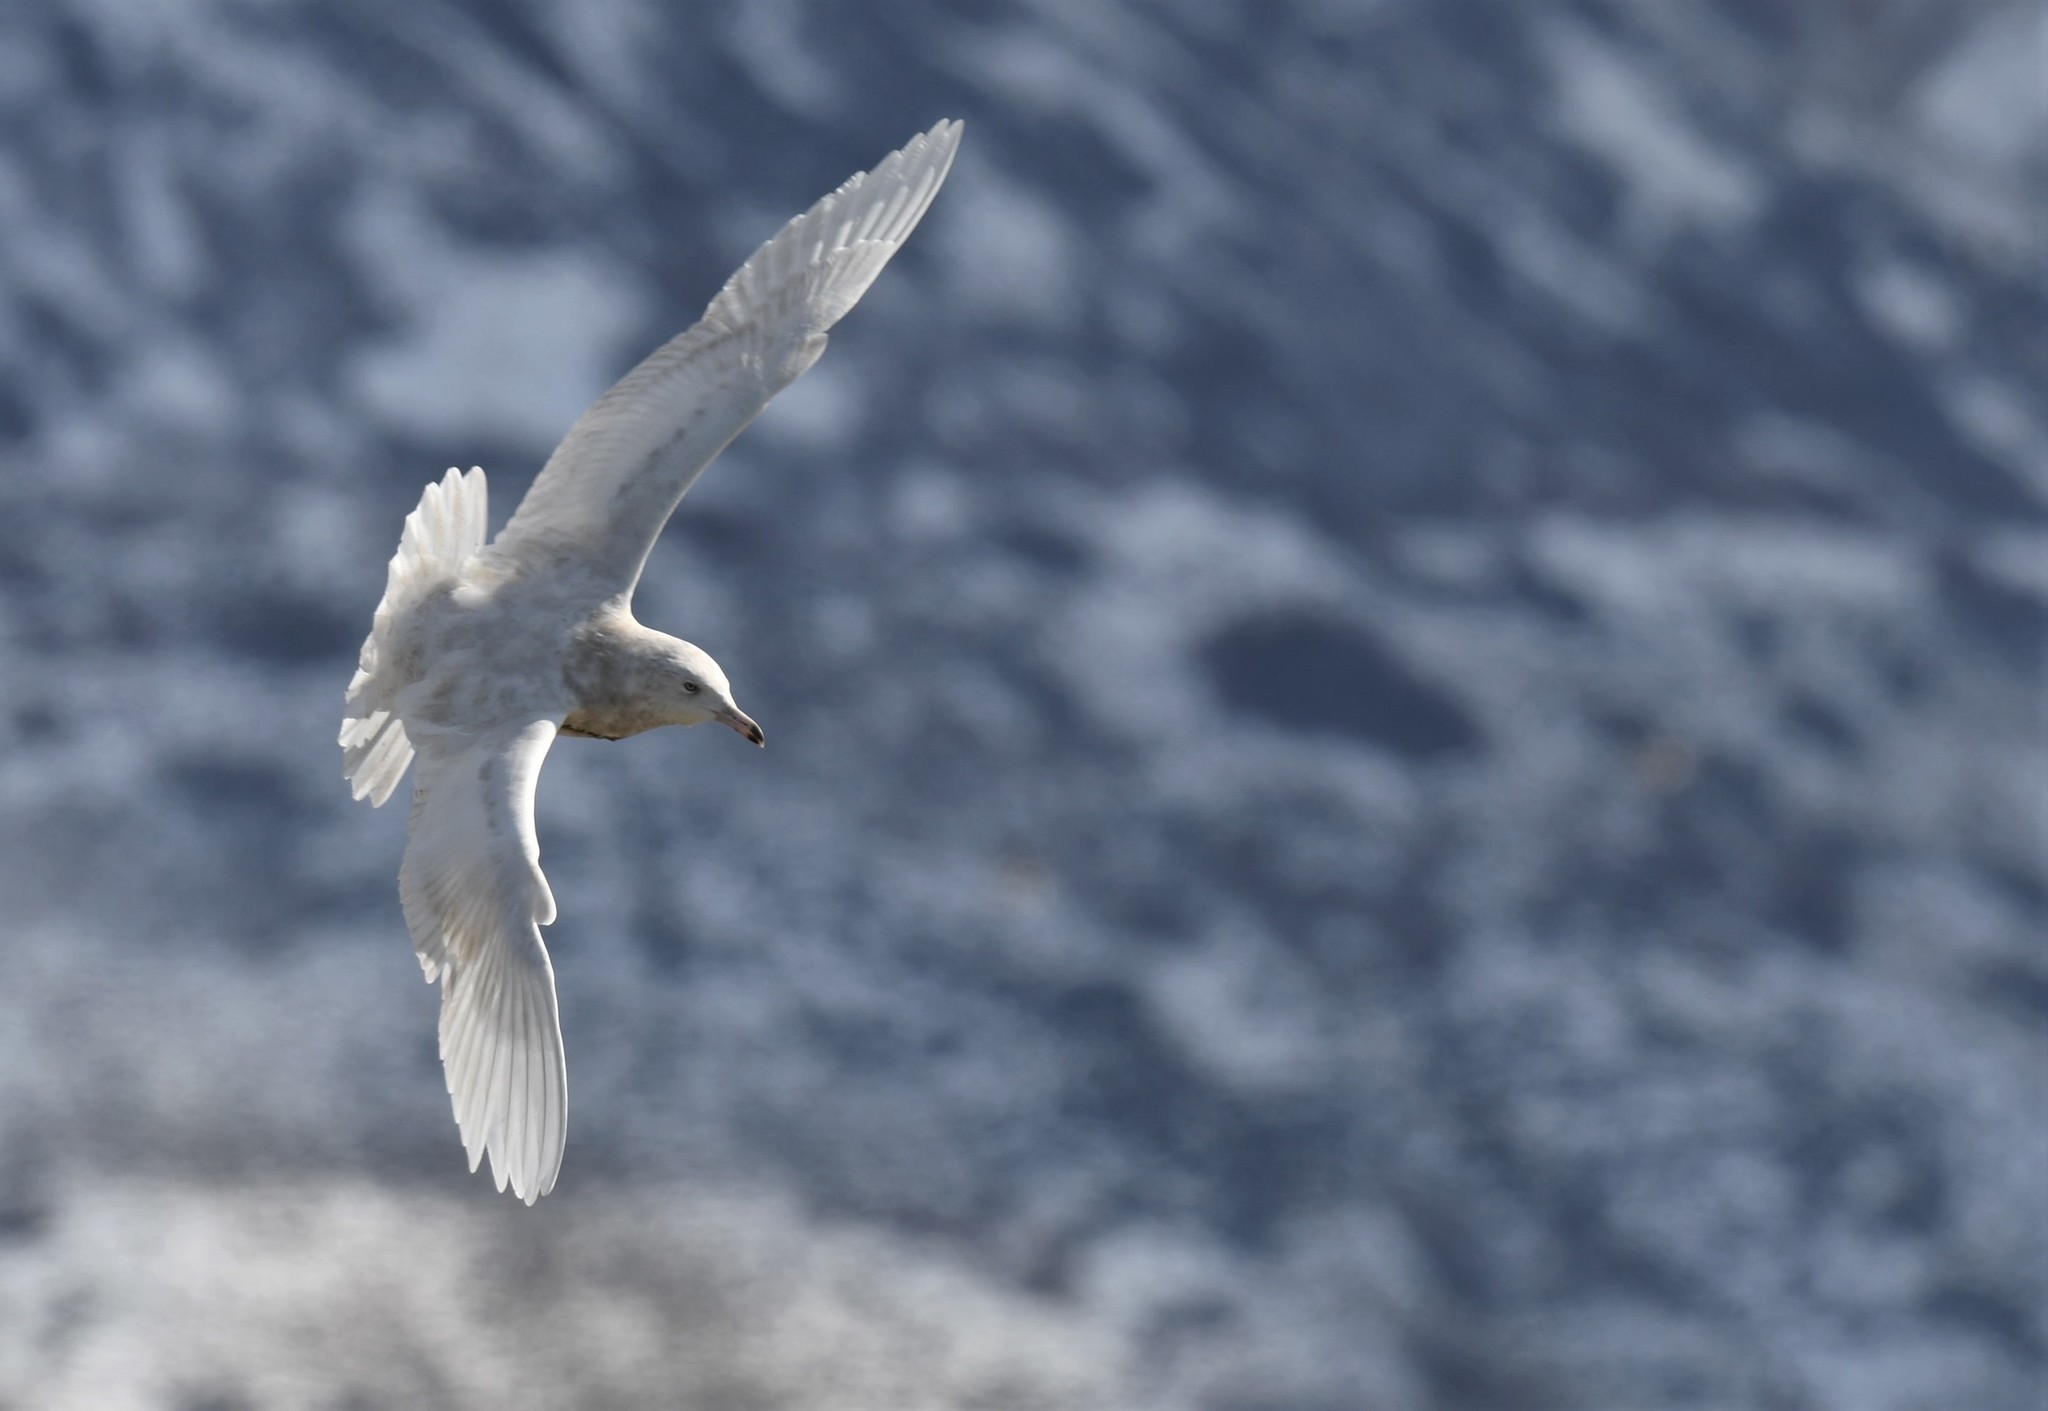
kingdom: Animalia
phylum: Chordata
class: Aves
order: Charadriiformes
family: Laridae
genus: Larus
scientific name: Larus hyperboreus
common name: Glaucous gull
